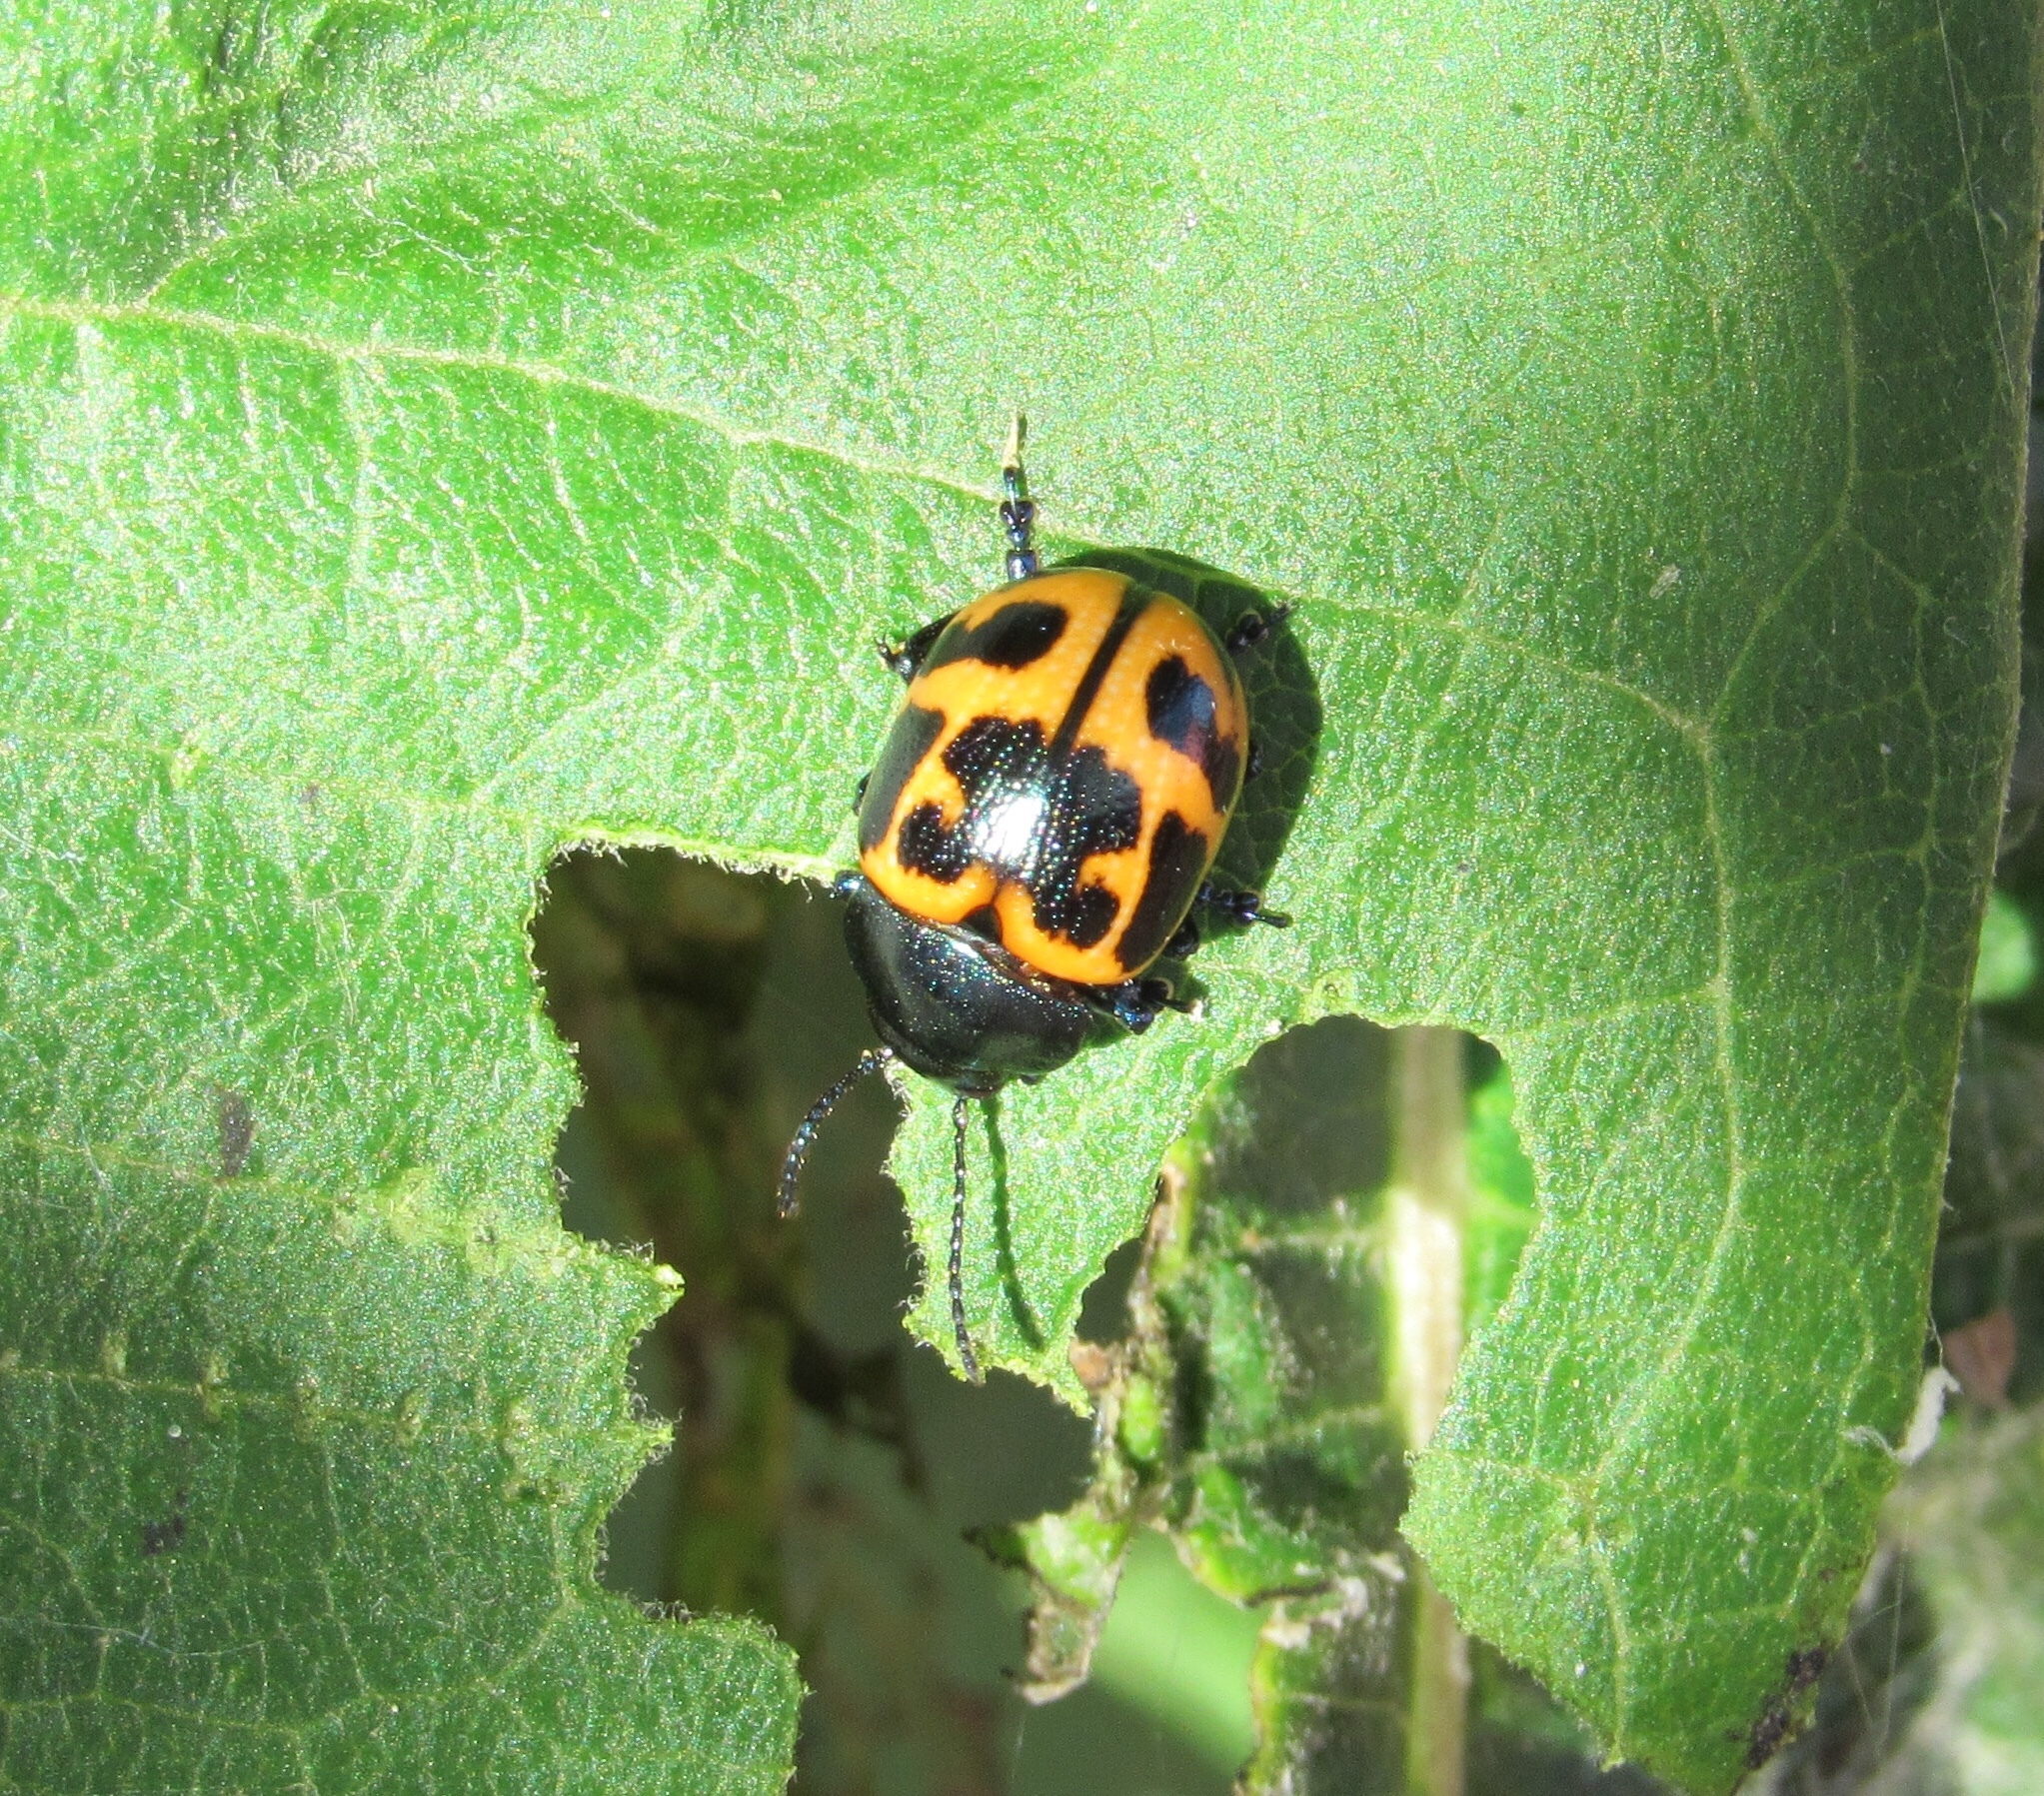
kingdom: Animalia
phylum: Arthropoda
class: Insecta
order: Coleoptera
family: Chrysomelidae
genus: Labidomera
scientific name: Labidomera clivicollis
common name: Swamp milkweed leaf beetle
